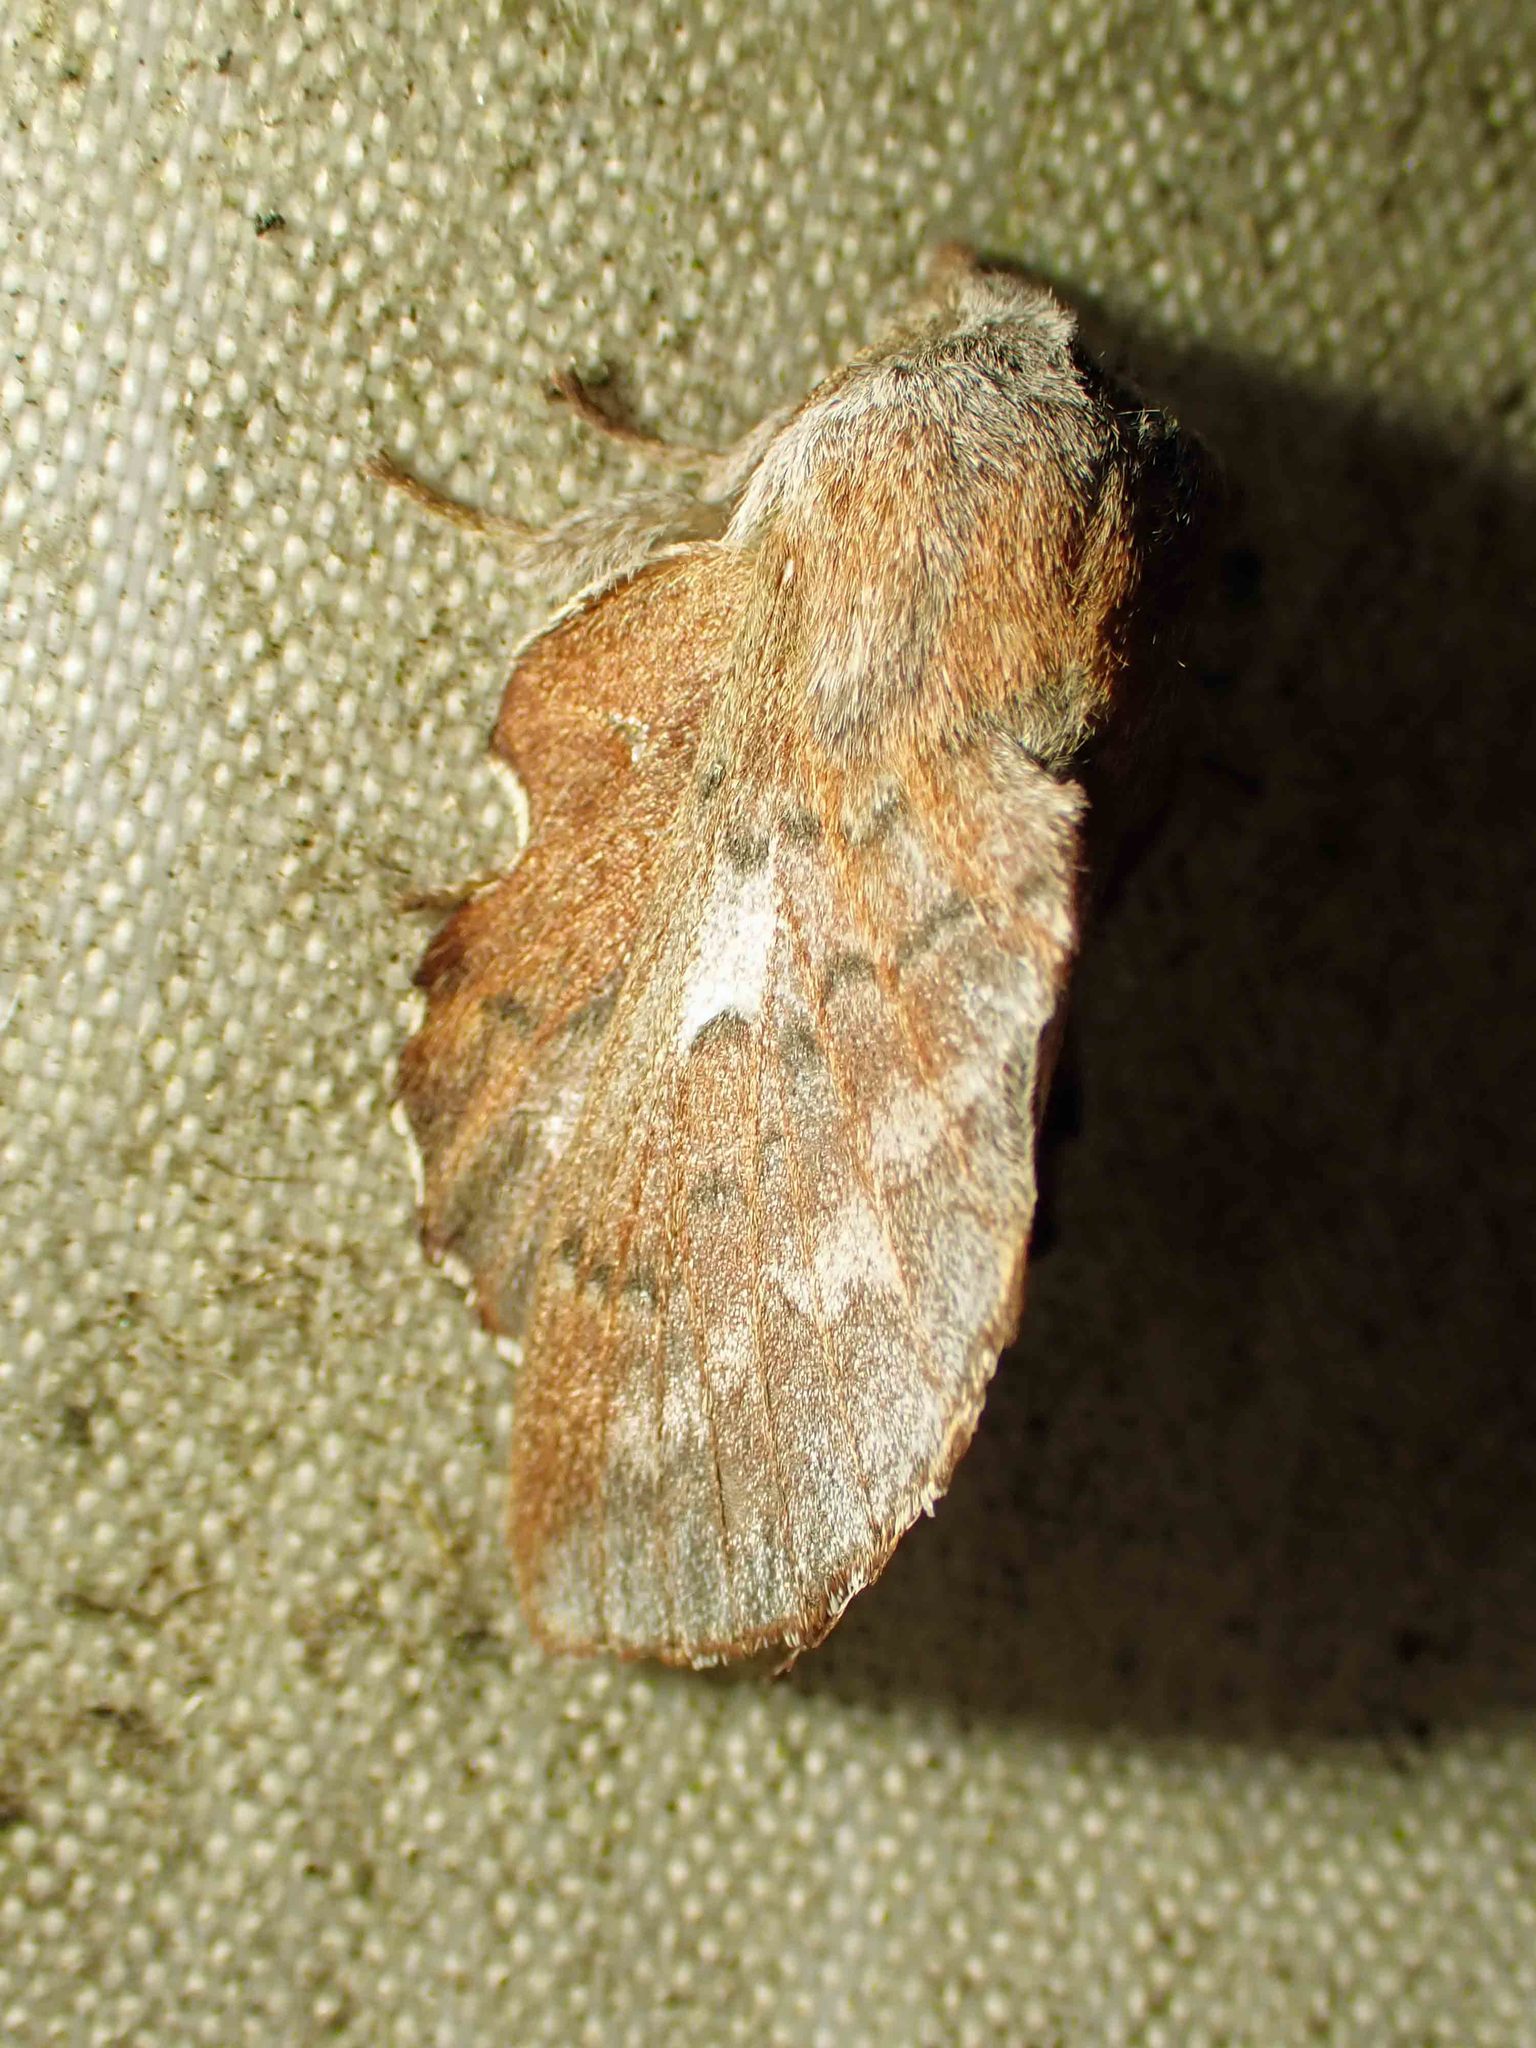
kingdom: Animalia
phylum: Arthropoda
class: Insecta
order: Lepidoptera
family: Lasiocampidae
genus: Phyllodesma
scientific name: Phyllodesma americana
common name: American lappet moth
